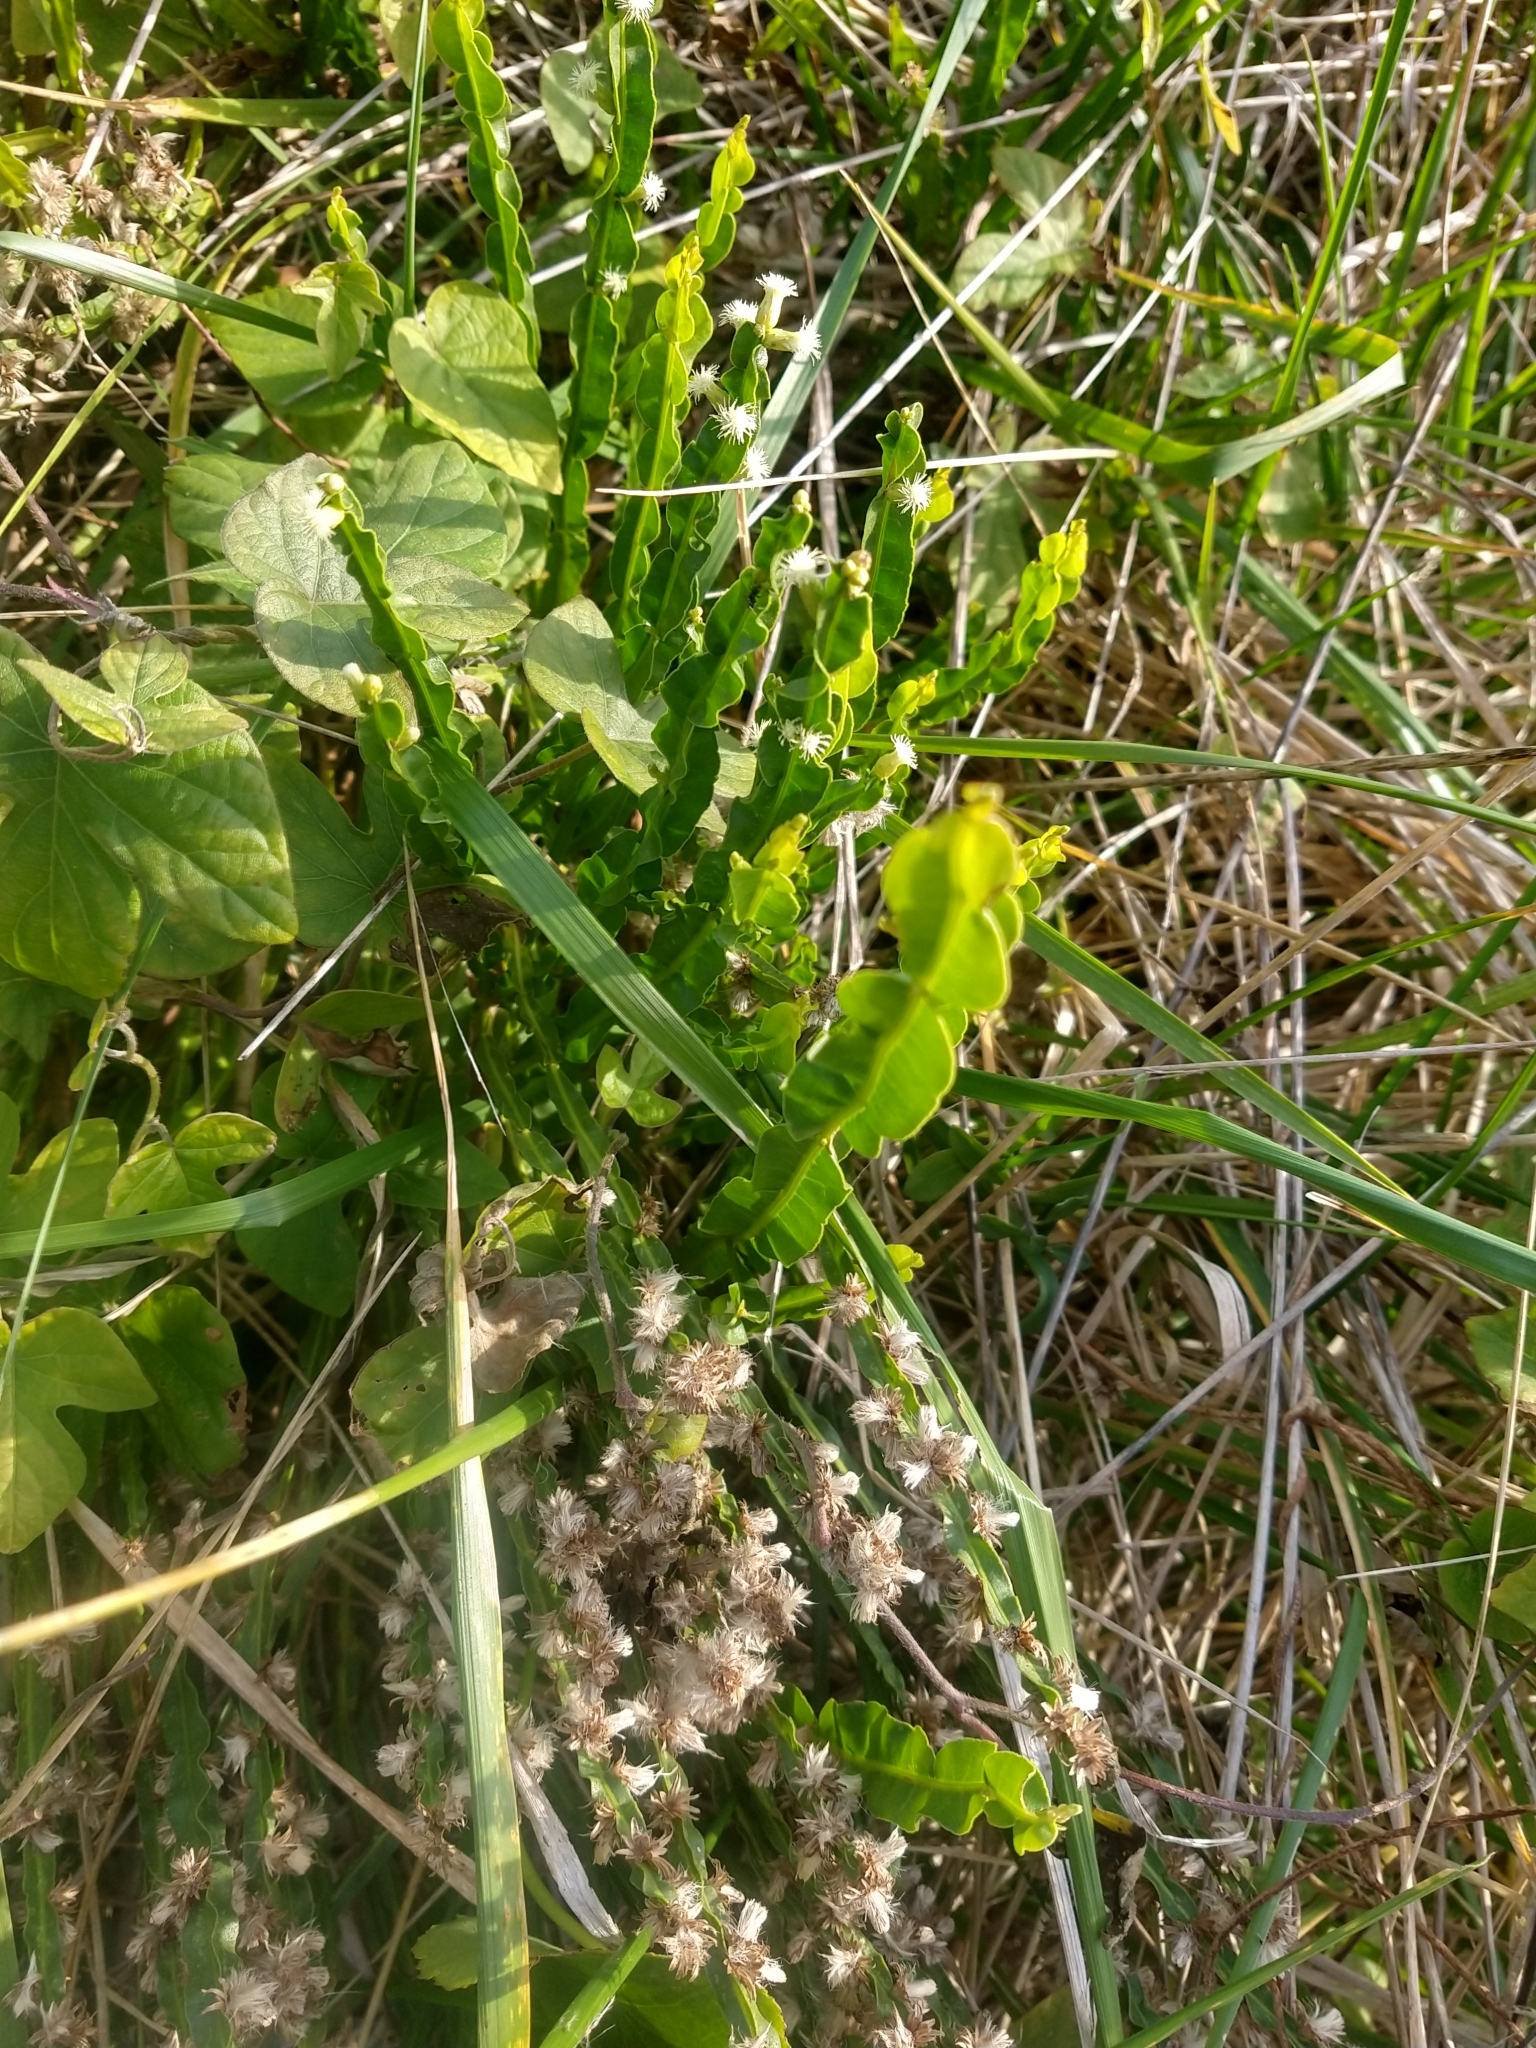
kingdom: Plantae
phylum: Tracheophyta
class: Magnoliopsida
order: Asterales
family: Asteraceae
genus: Baccharis
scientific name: Baccharis trimera
